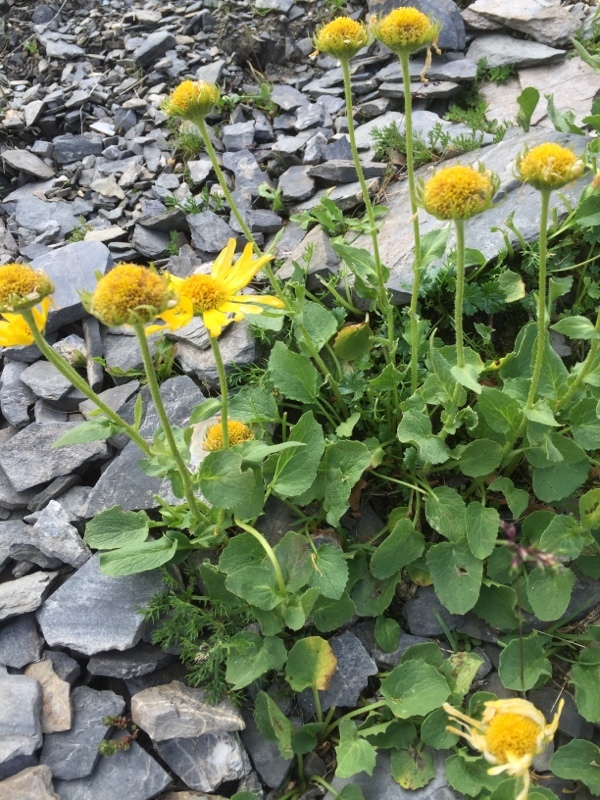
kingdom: Plantae
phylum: Tracheophyta
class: Magnoliopsida
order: Asterales
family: Asteraceae
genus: Doronicum
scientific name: Doronicum grandiflorum
